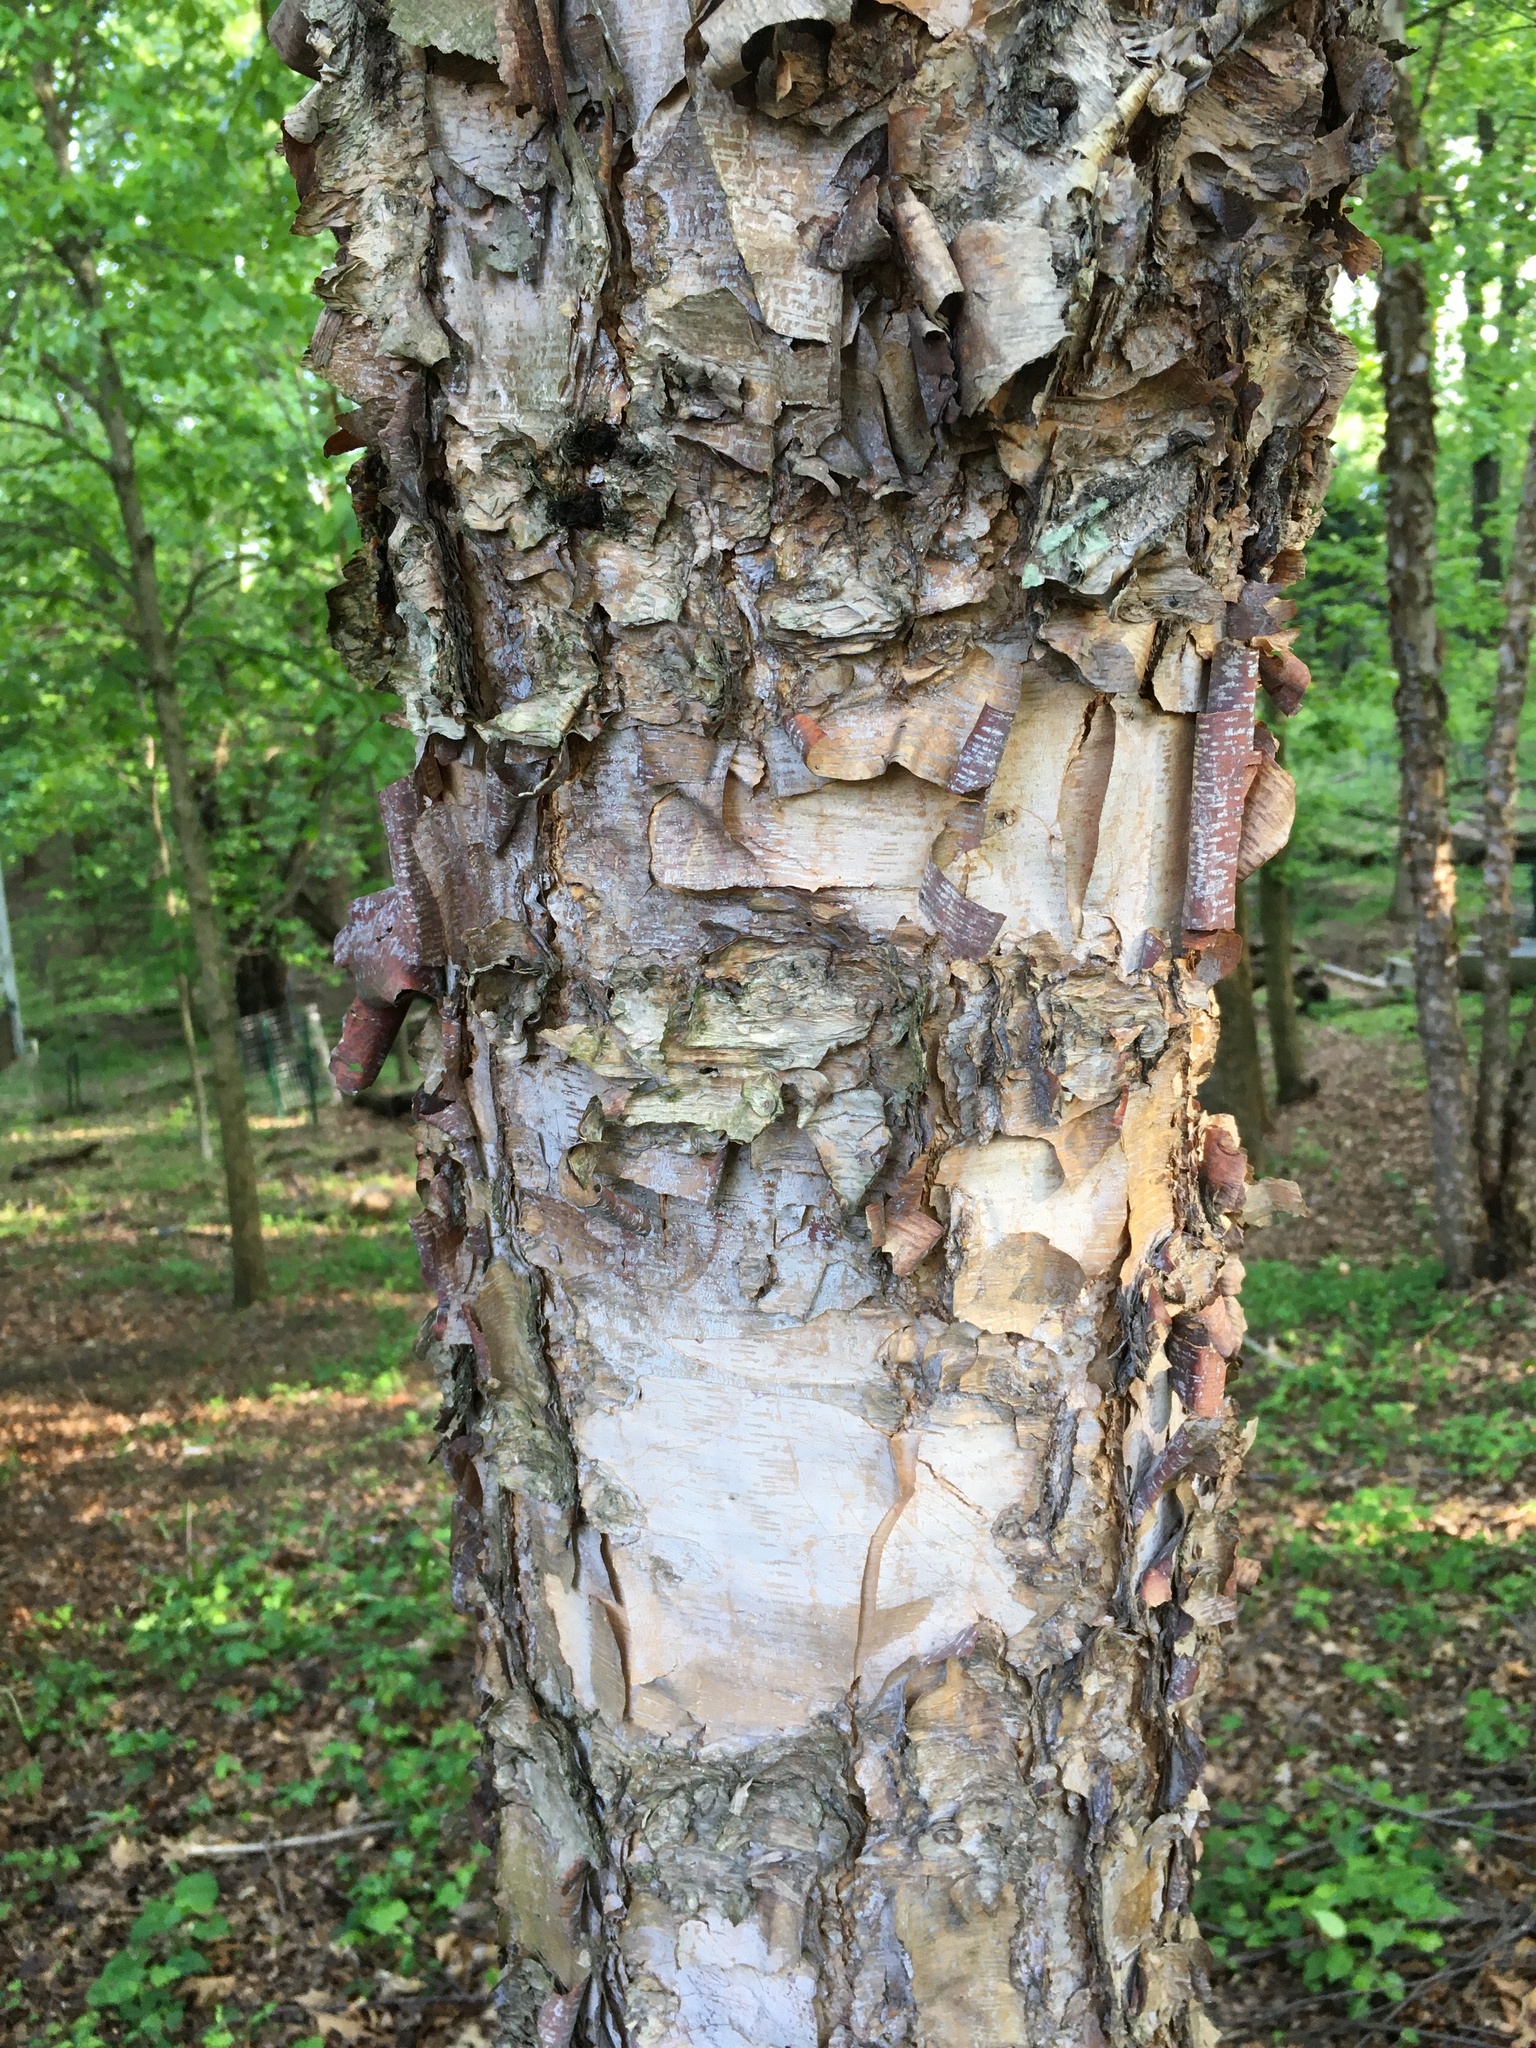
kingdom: Plantae
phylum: Tracheophyta
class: Magnoliopsida
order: Fagales
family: Betulaceae
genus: Betula
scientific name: Betula nigra
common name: Black birch
